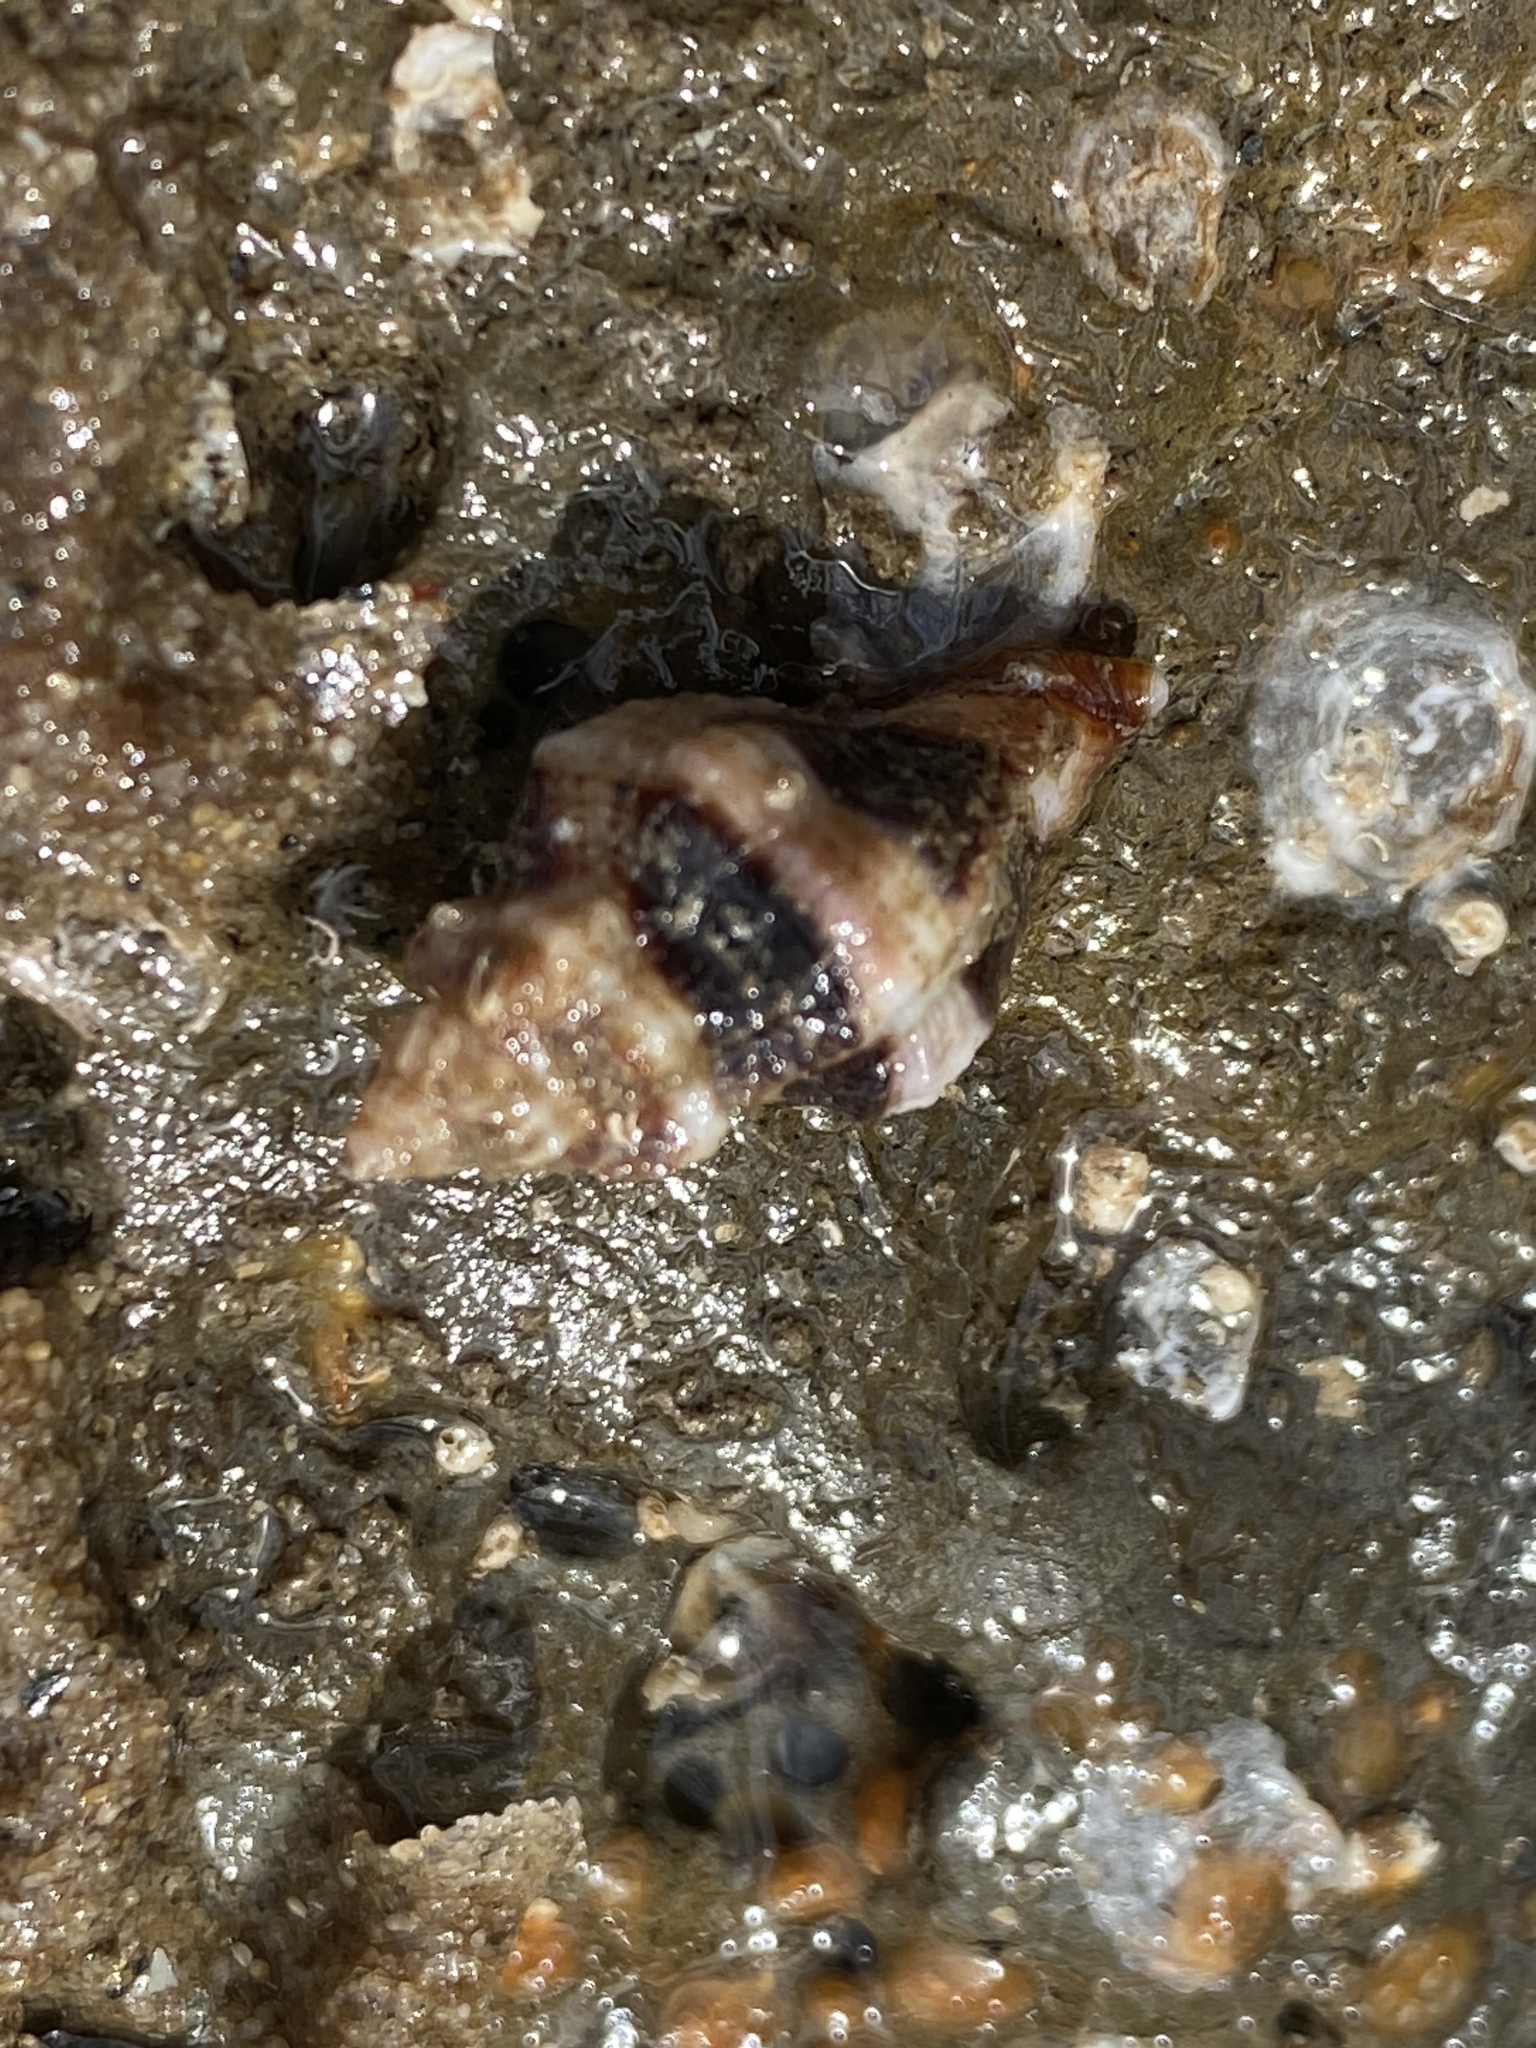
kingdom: Animalia
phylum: Mollusca
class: Gastropoda
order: Neogastropoda
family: Muricidae
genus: Ceratostoma
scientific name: Ceratostoma nuttalli
